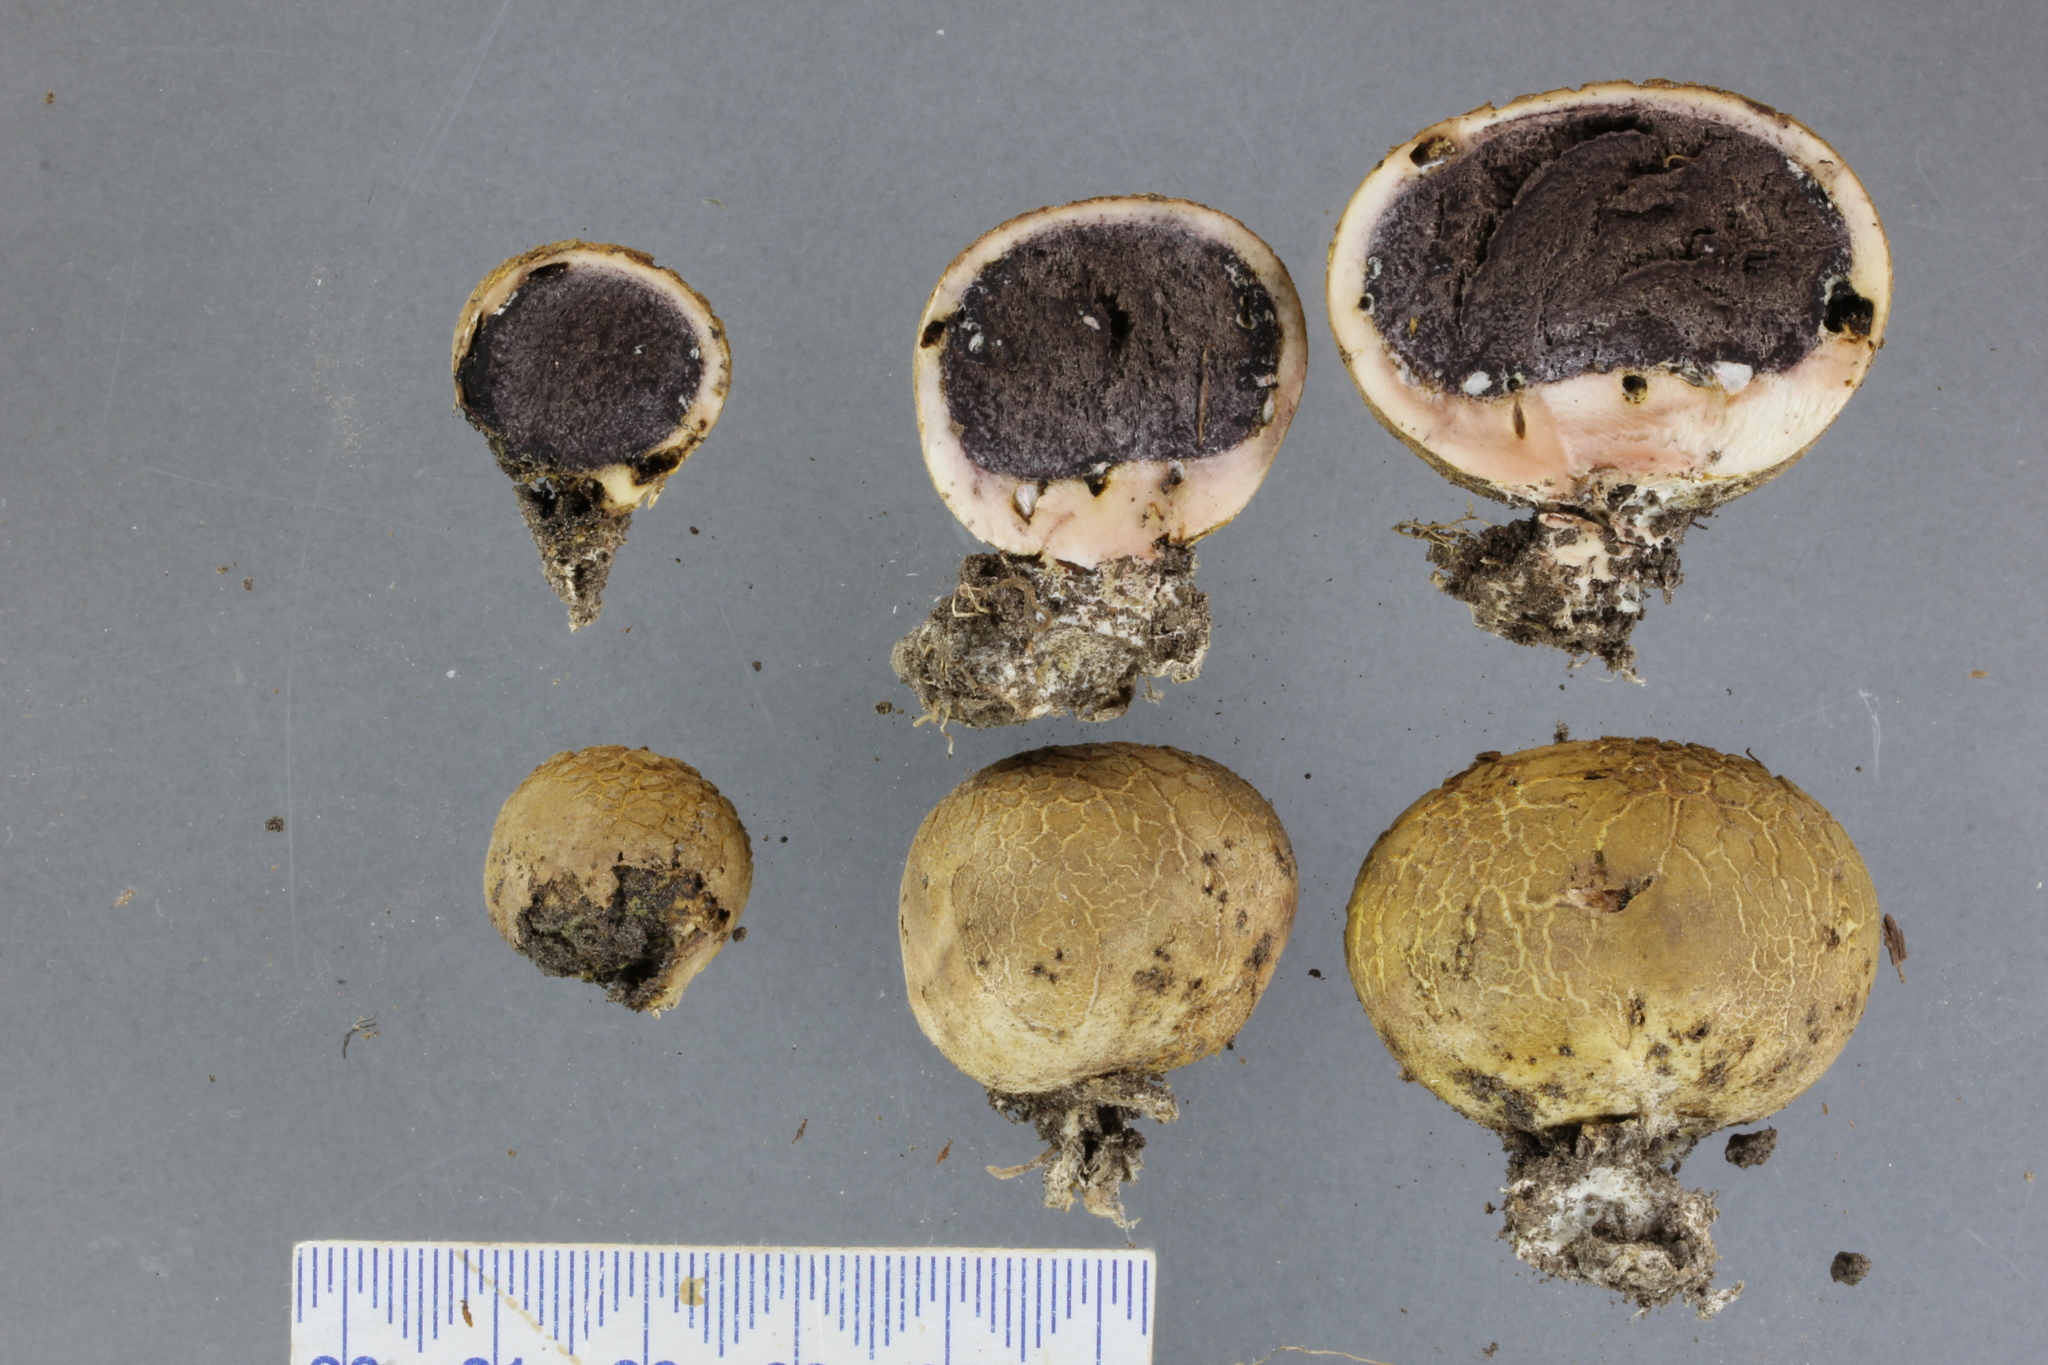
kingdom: Fungi
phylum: Basidiomycota
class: Agaricomycetes
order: Boletales
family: Sclerodermataceae
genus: Scleroderma
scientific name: Scleroderma
